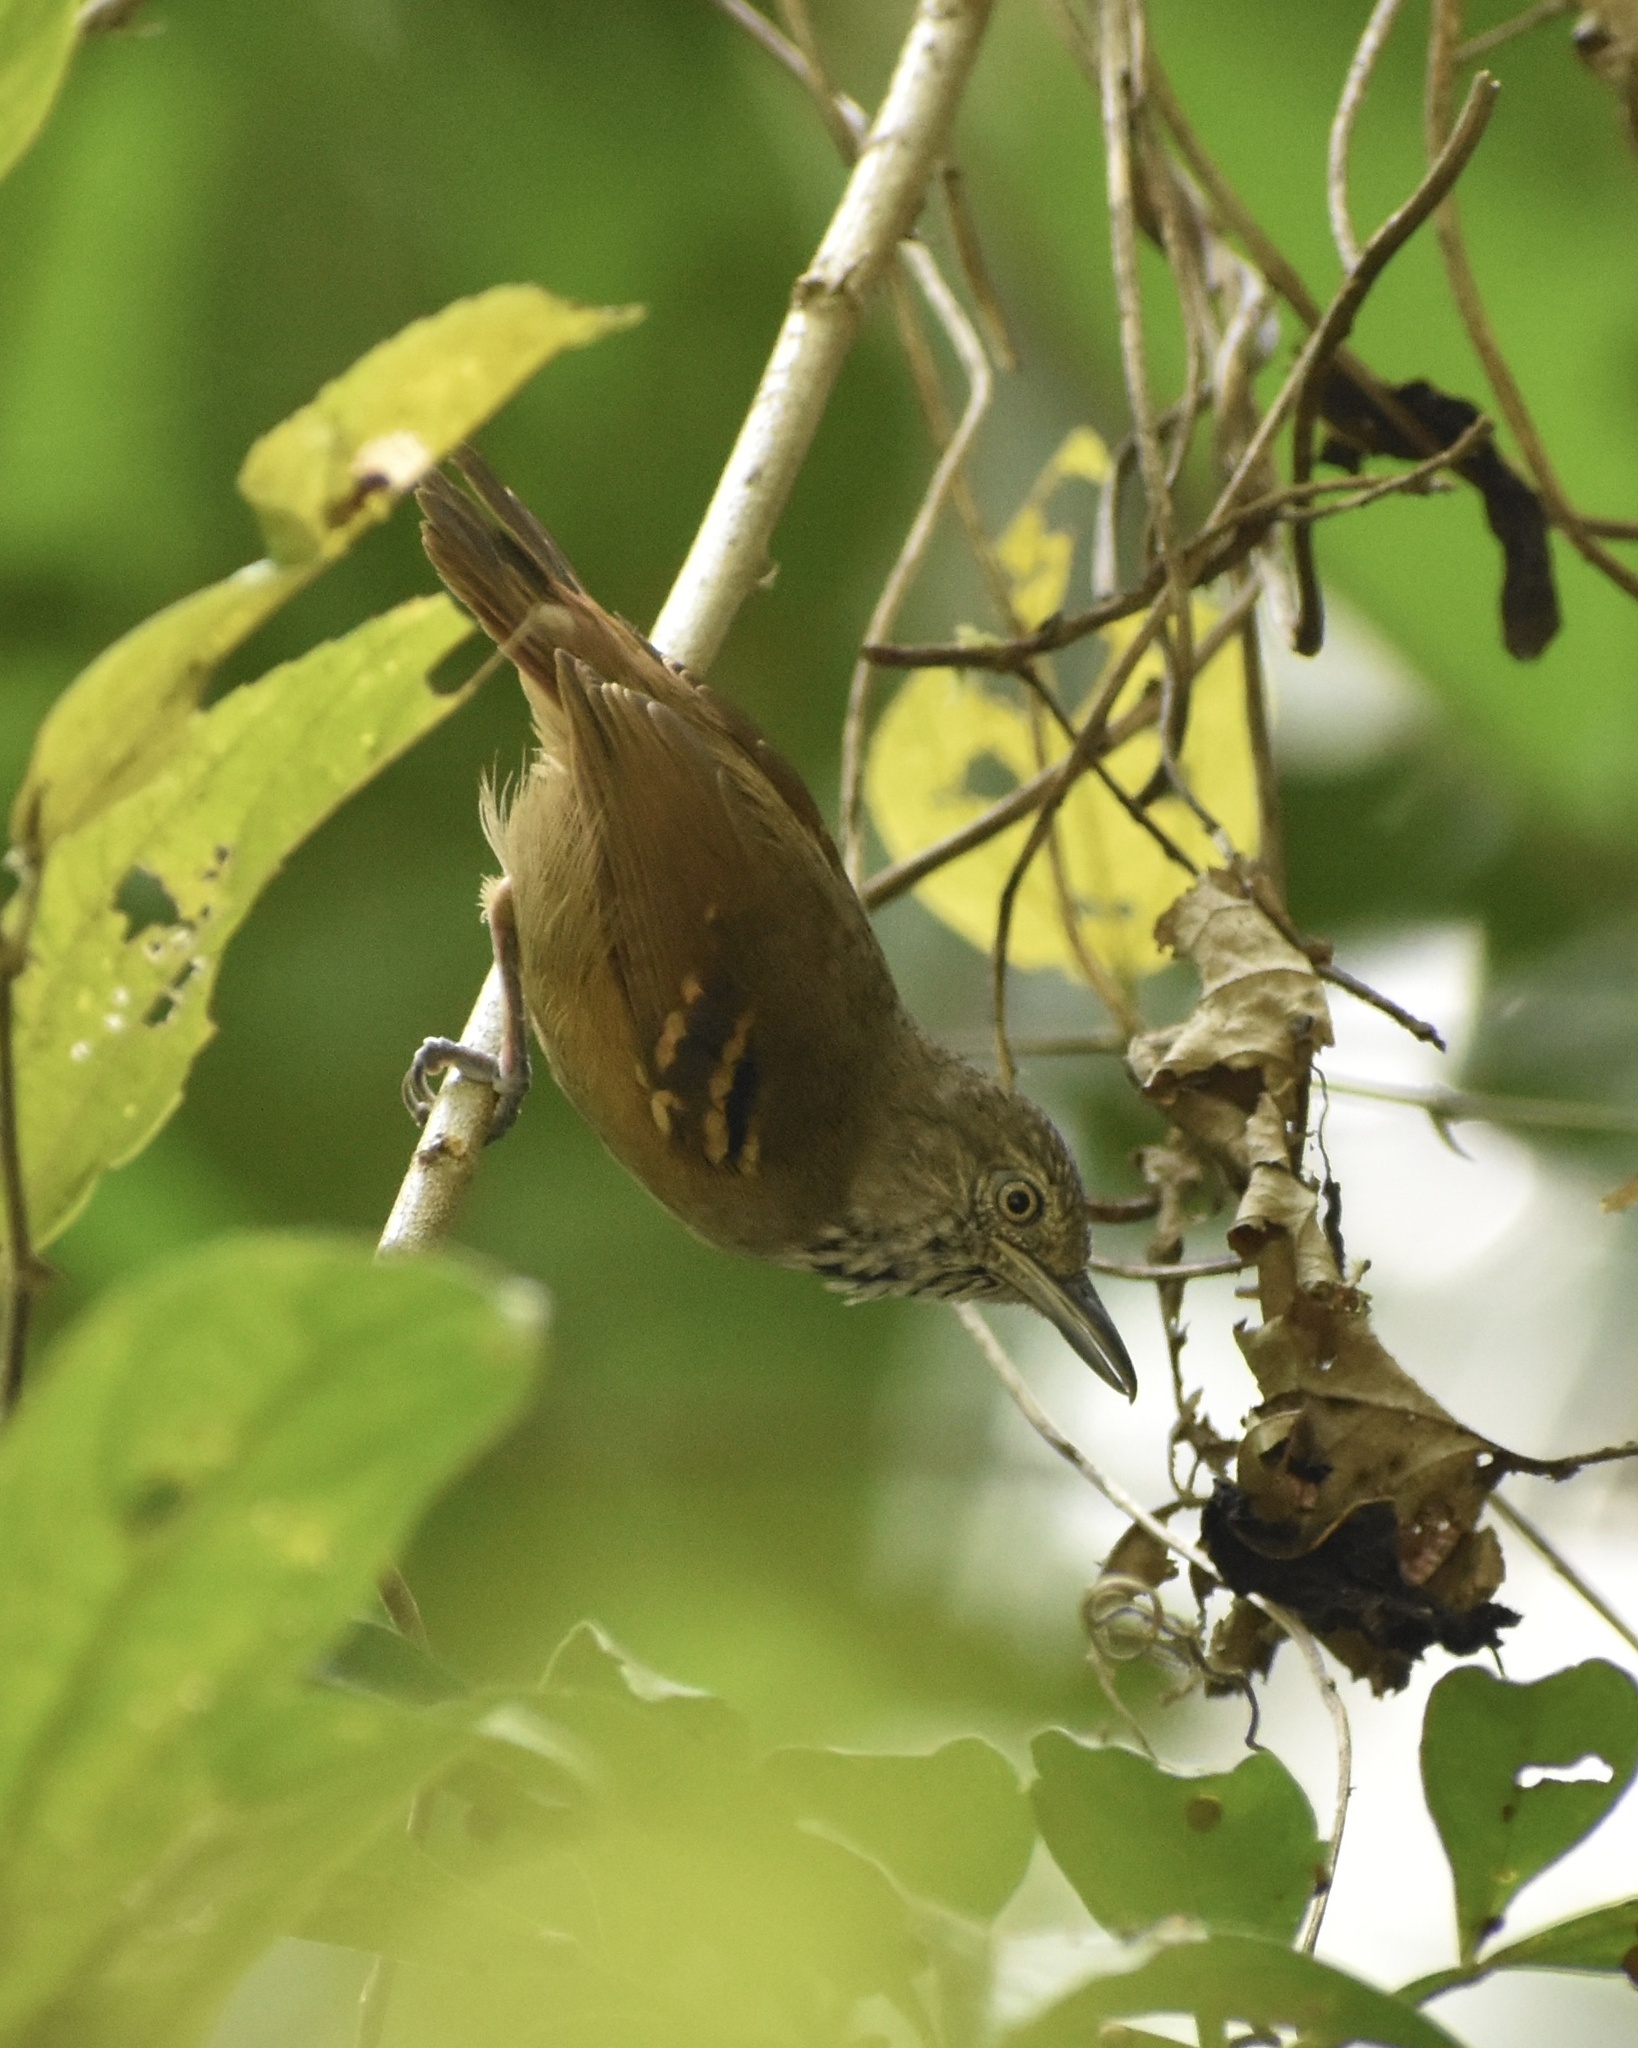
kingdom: Animalia
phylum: Chordata
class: Aves
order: Passeriformes
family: Thamnophilidae
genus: Epinecrophylla
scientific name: Epinecrophylla fulviventris
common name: Checker-throated antwren
